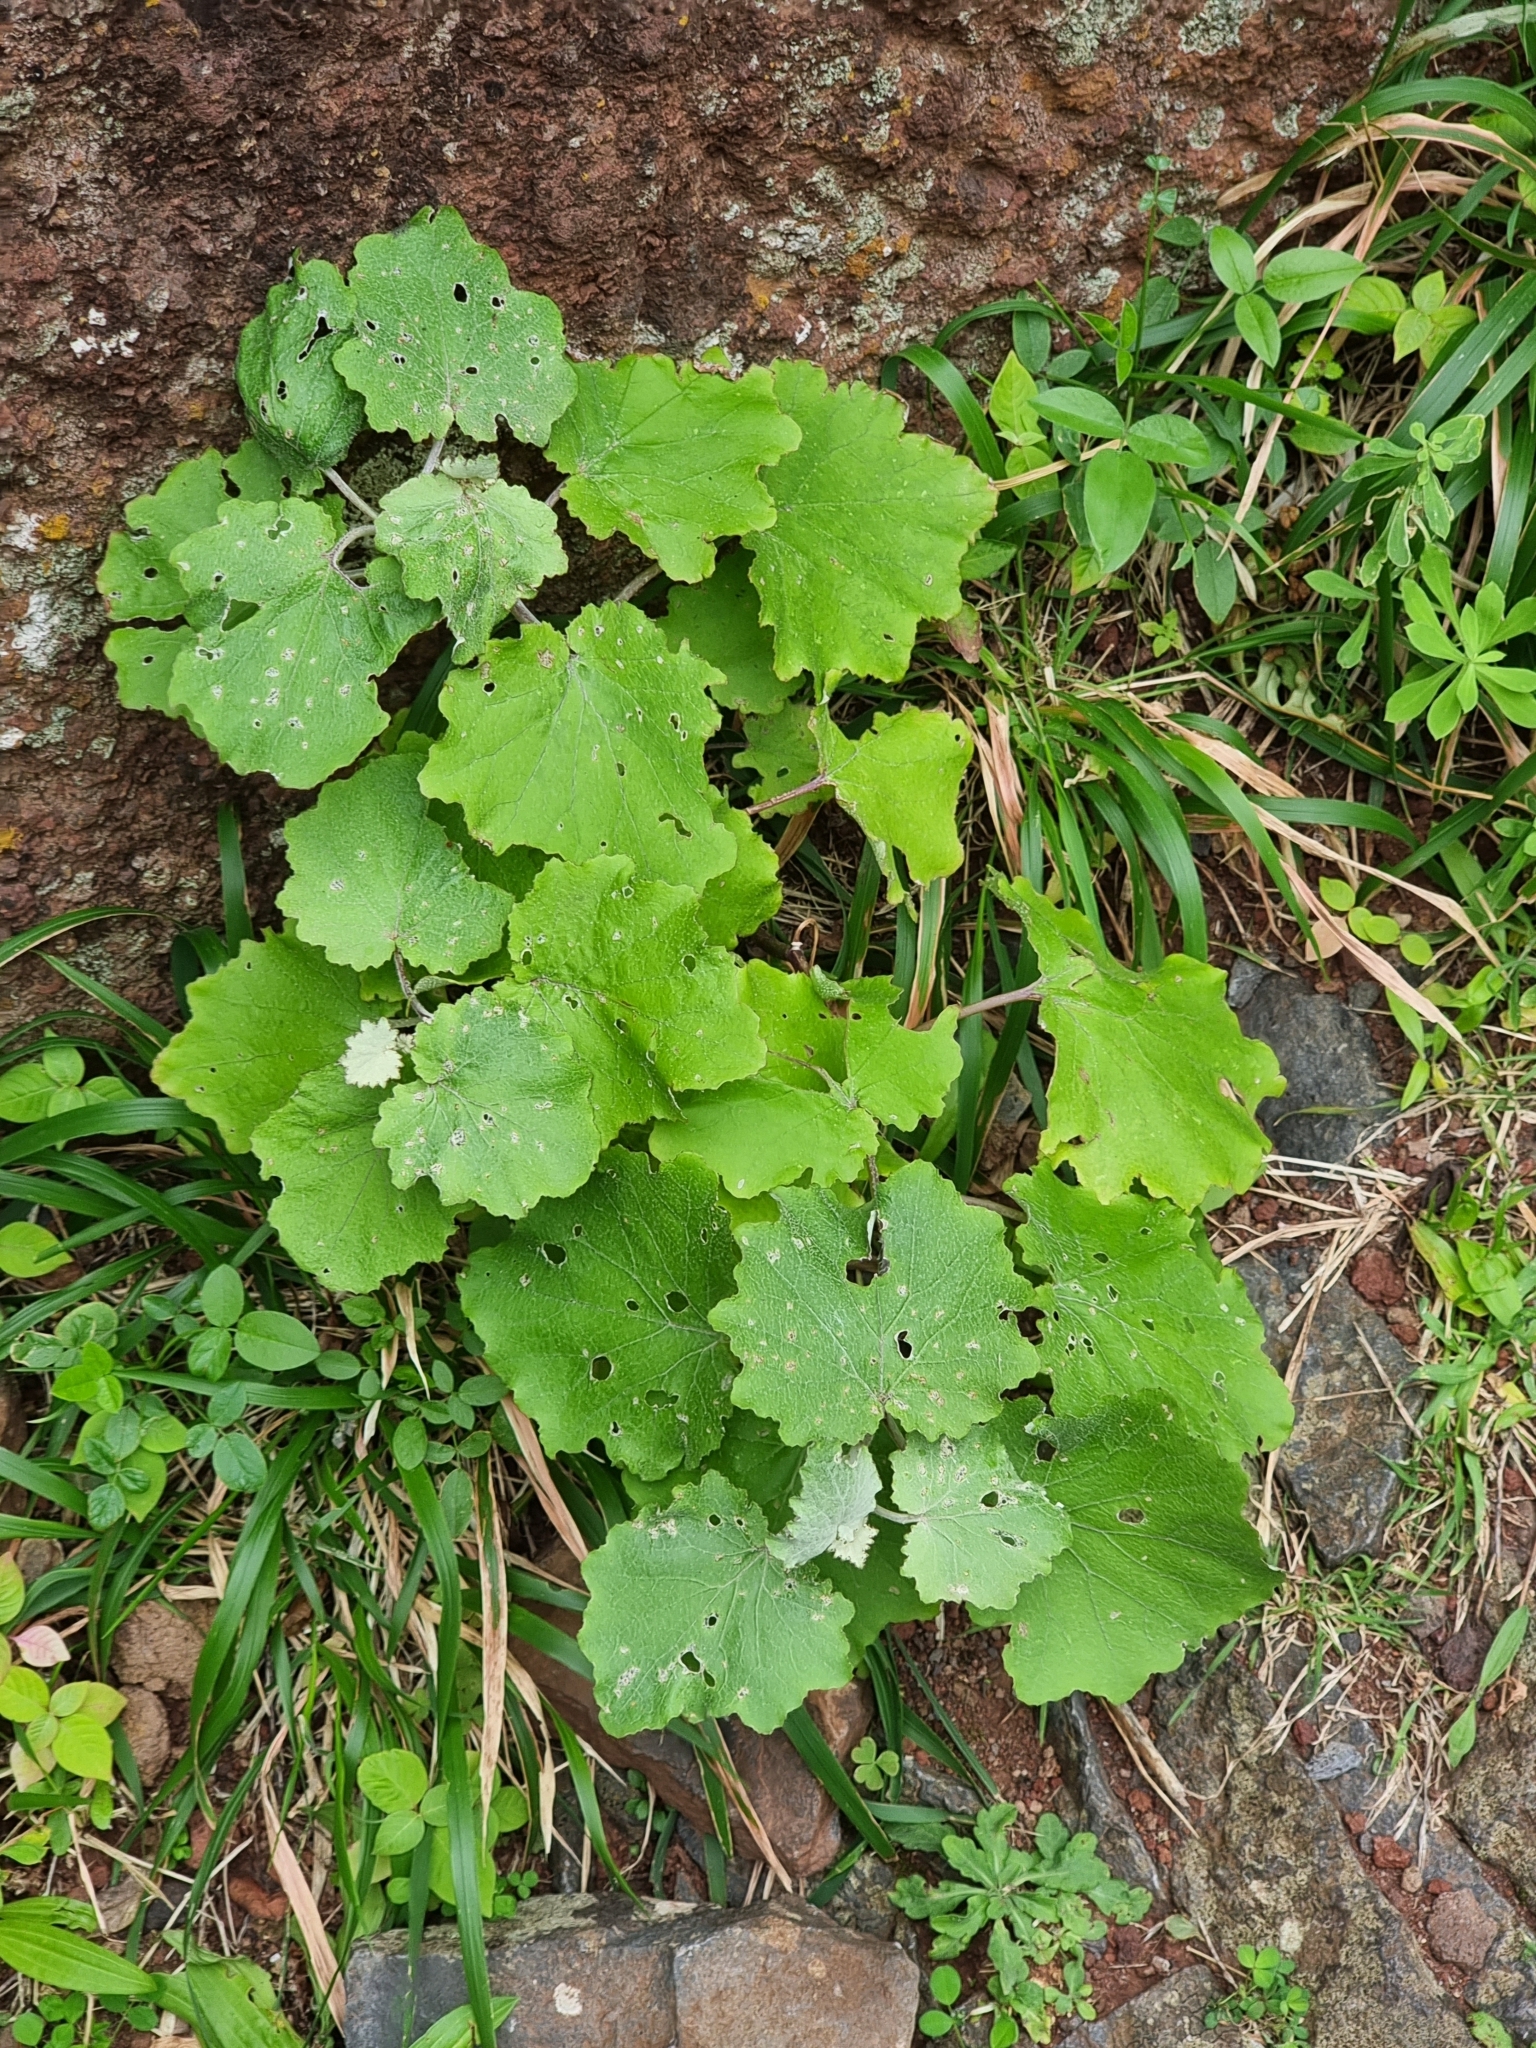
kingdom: Plantae
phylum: Tracheophyta
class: Magnoliopsida
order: Asterales
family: Asteraceae
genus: Pericallis
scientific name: Pericallis aurita
